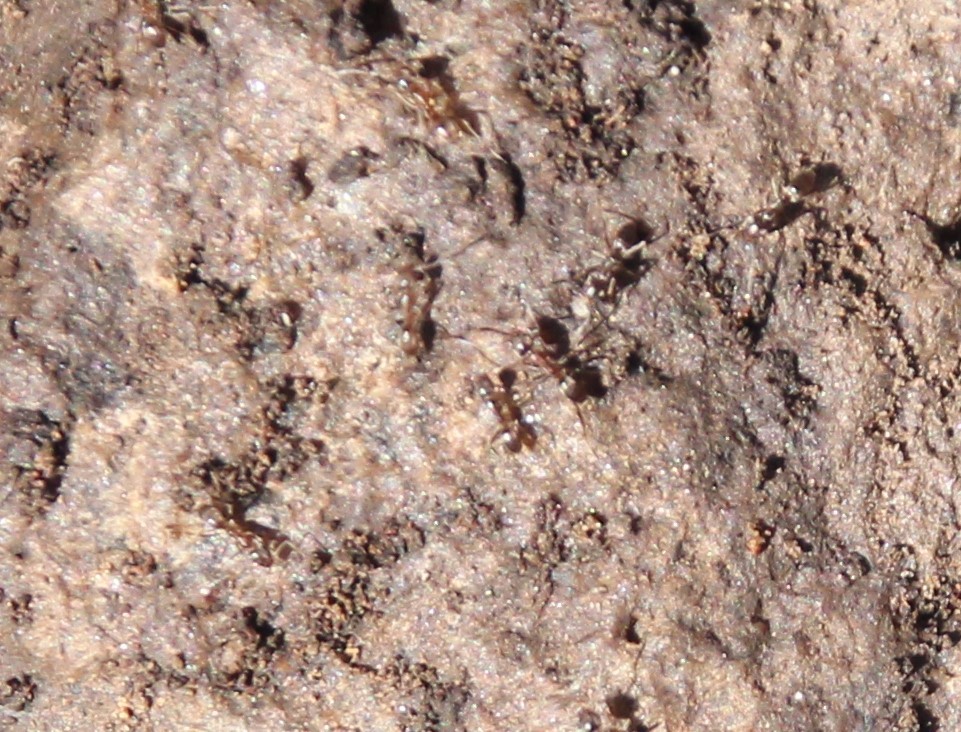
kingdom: Animalia
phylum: Arthropoda
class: Insecta
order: Hymenoptera
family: Formicidae
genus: Linepithema
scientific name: Linepithema humile
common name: Argentine ant
